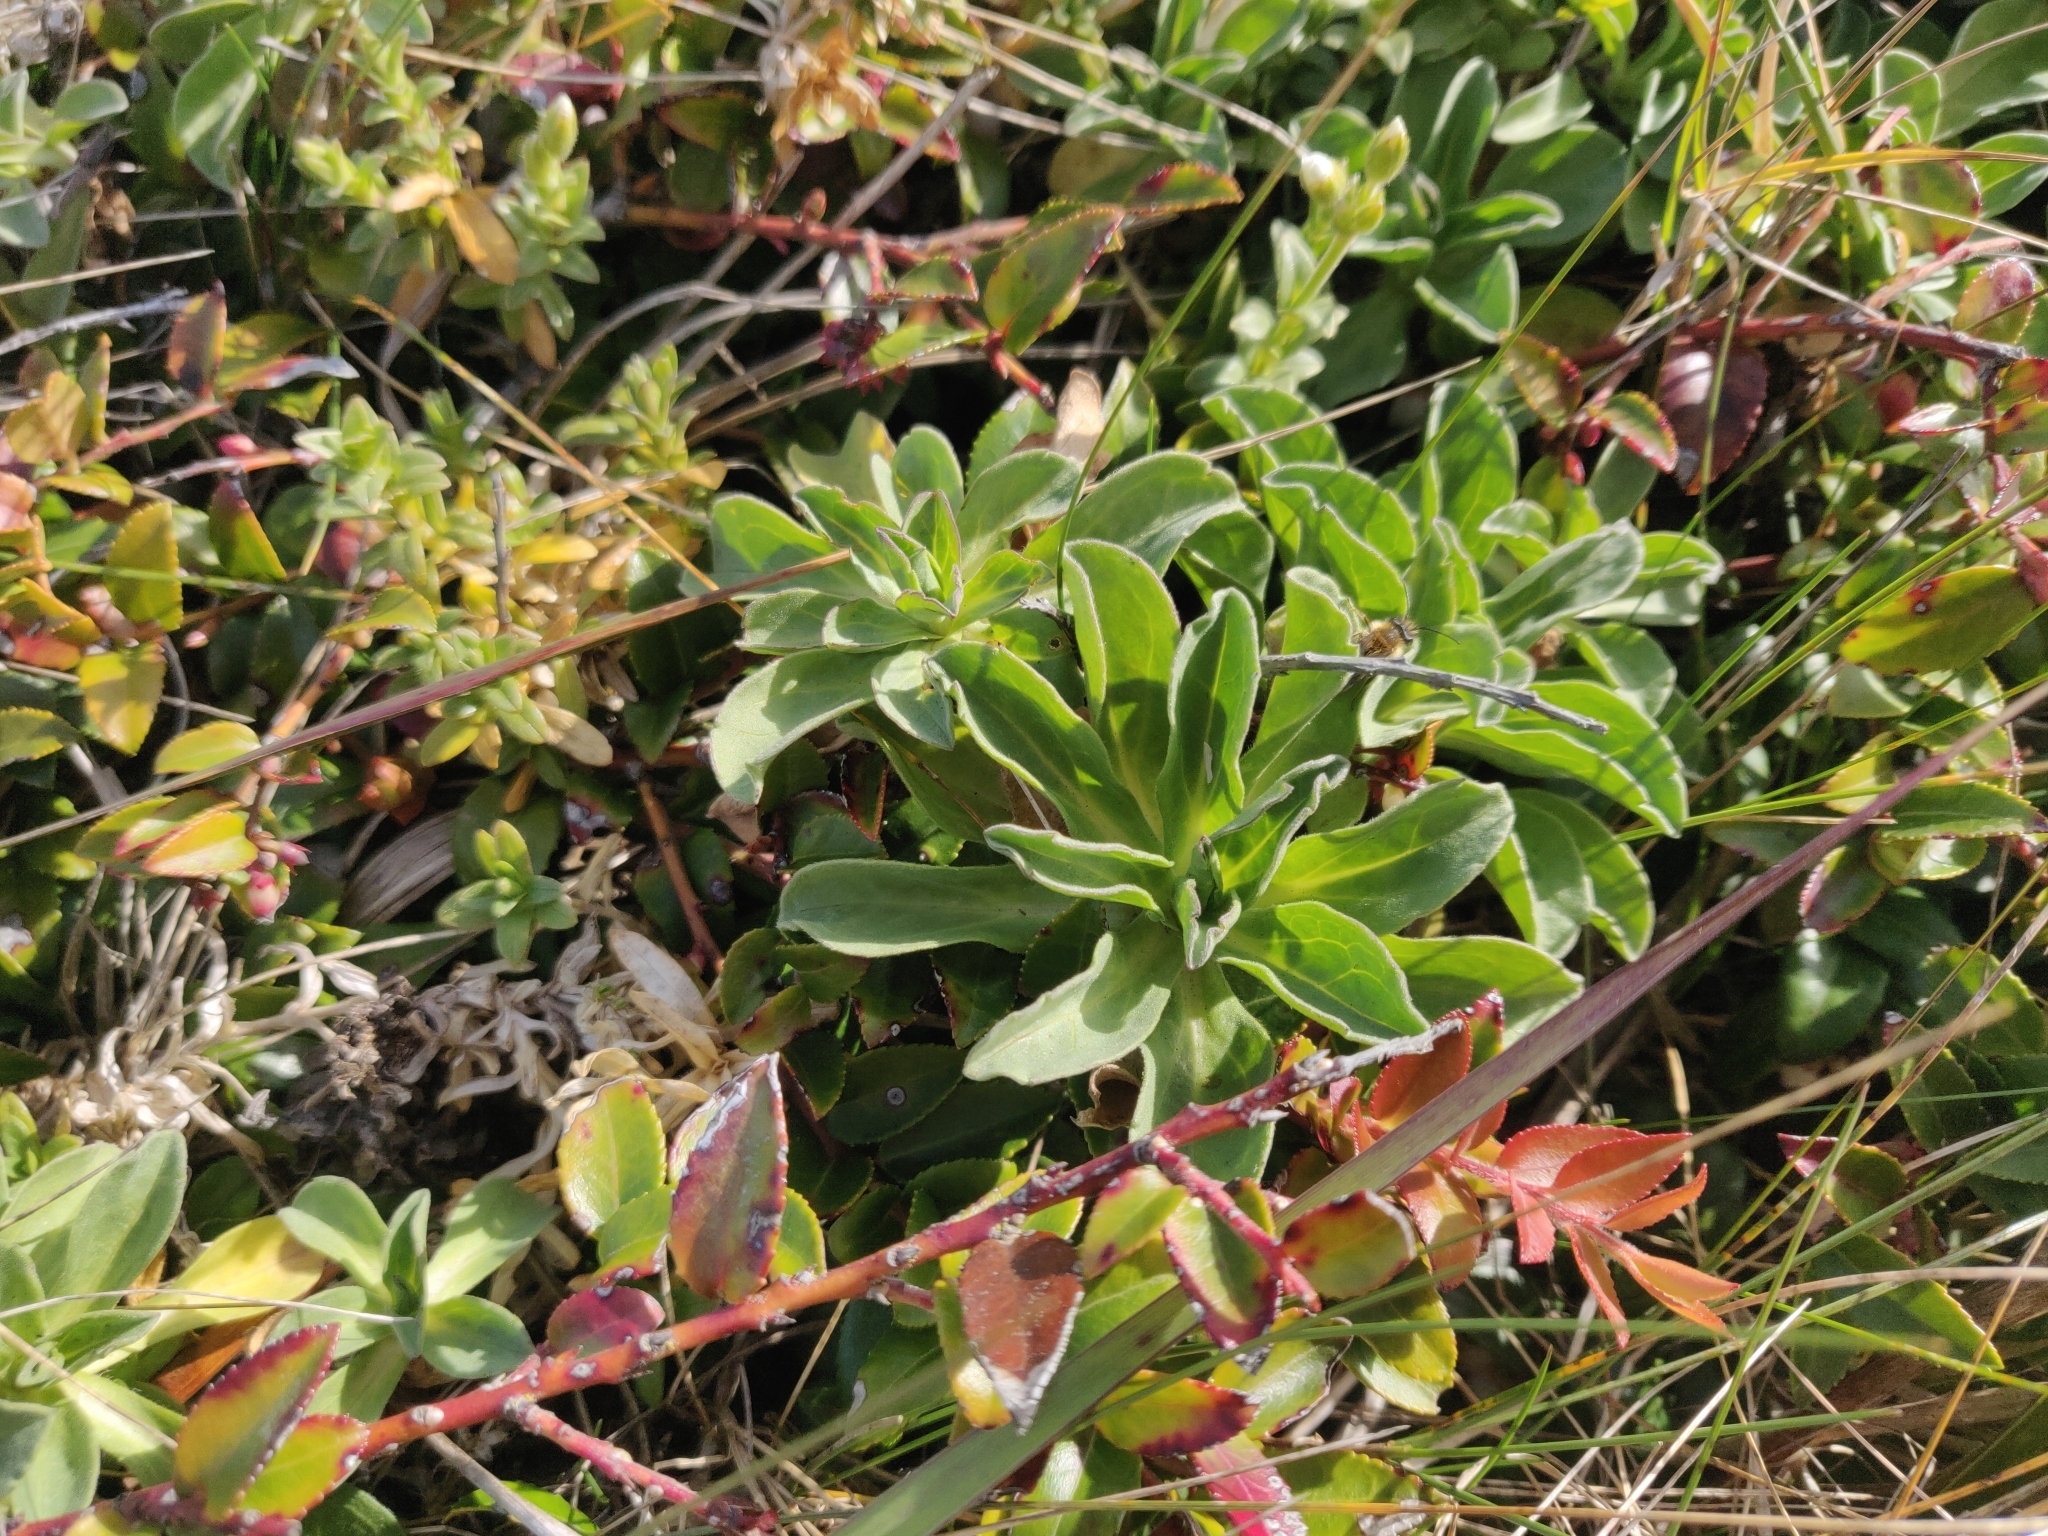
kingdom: Plantae
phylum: Tracheophyta
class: Magnoliopsida
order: Asterales
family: Asteraceae
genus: Erigeron
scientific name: Erigeron glaucus
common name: Seaside daisy
